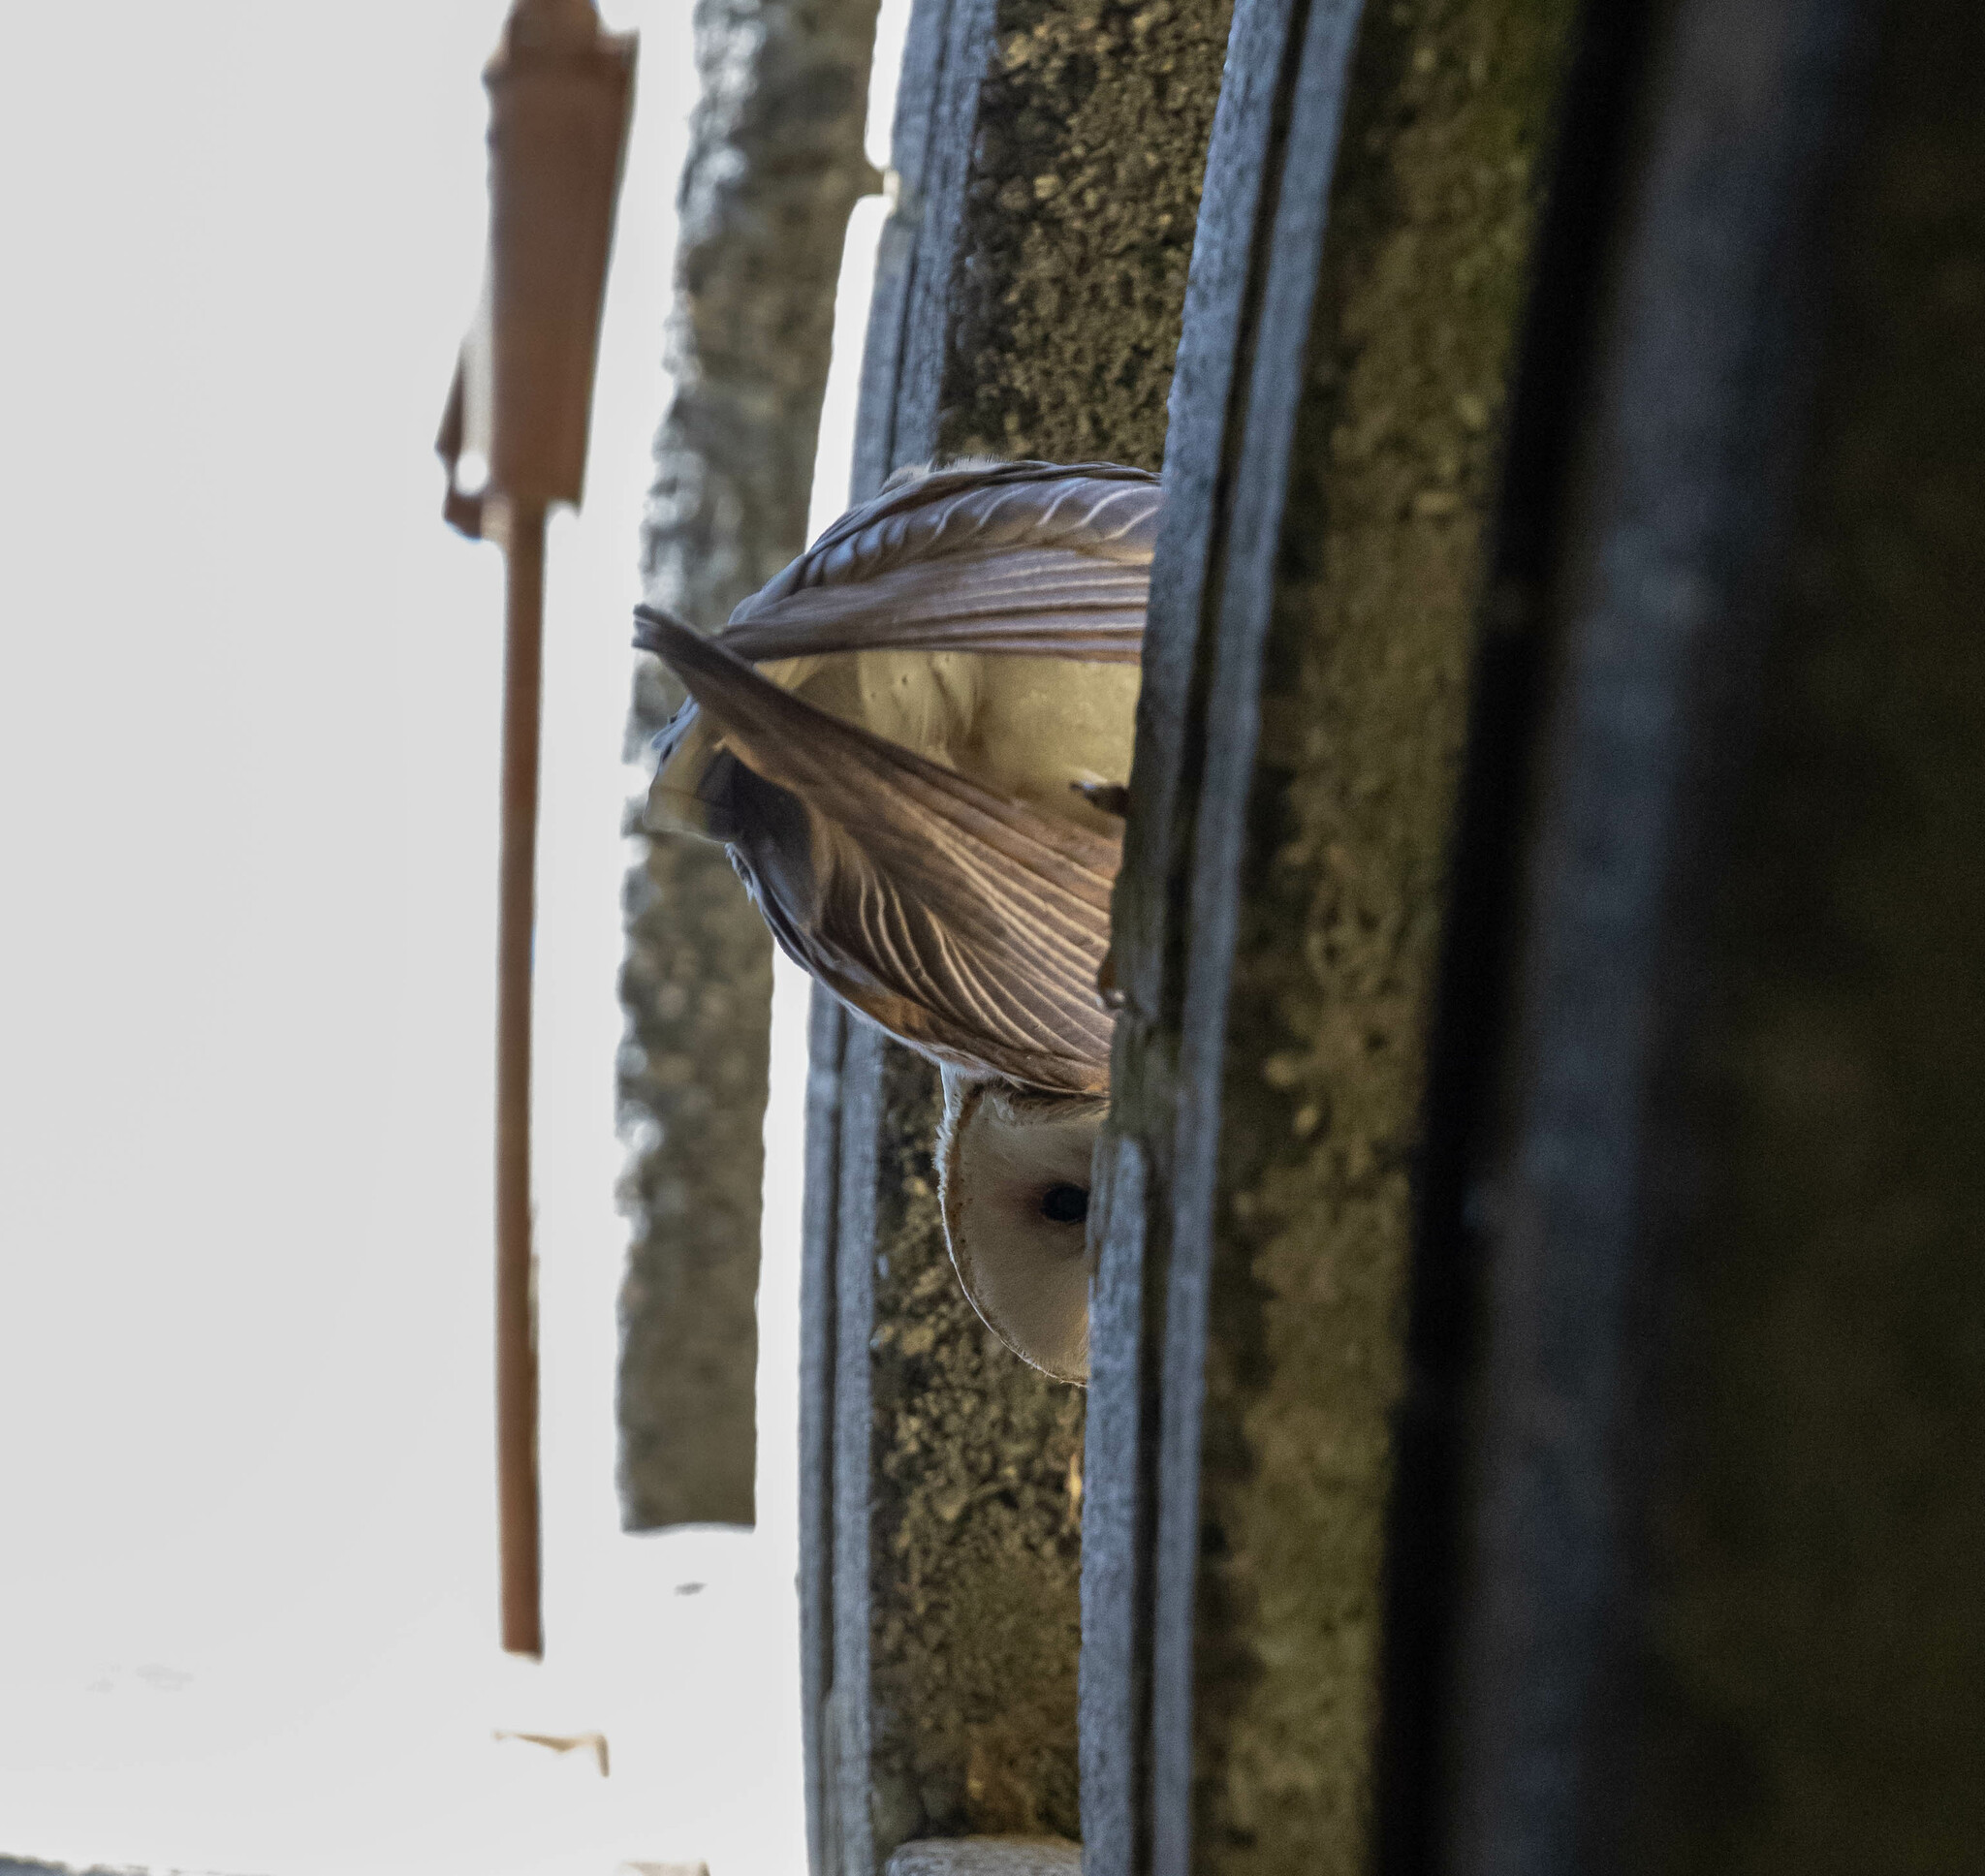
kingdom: Animalia
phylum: Chordata
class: Aves
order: Strigiformes
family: Tytonidae
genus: Tyto
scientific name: Tyto alba
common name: Barn owl
